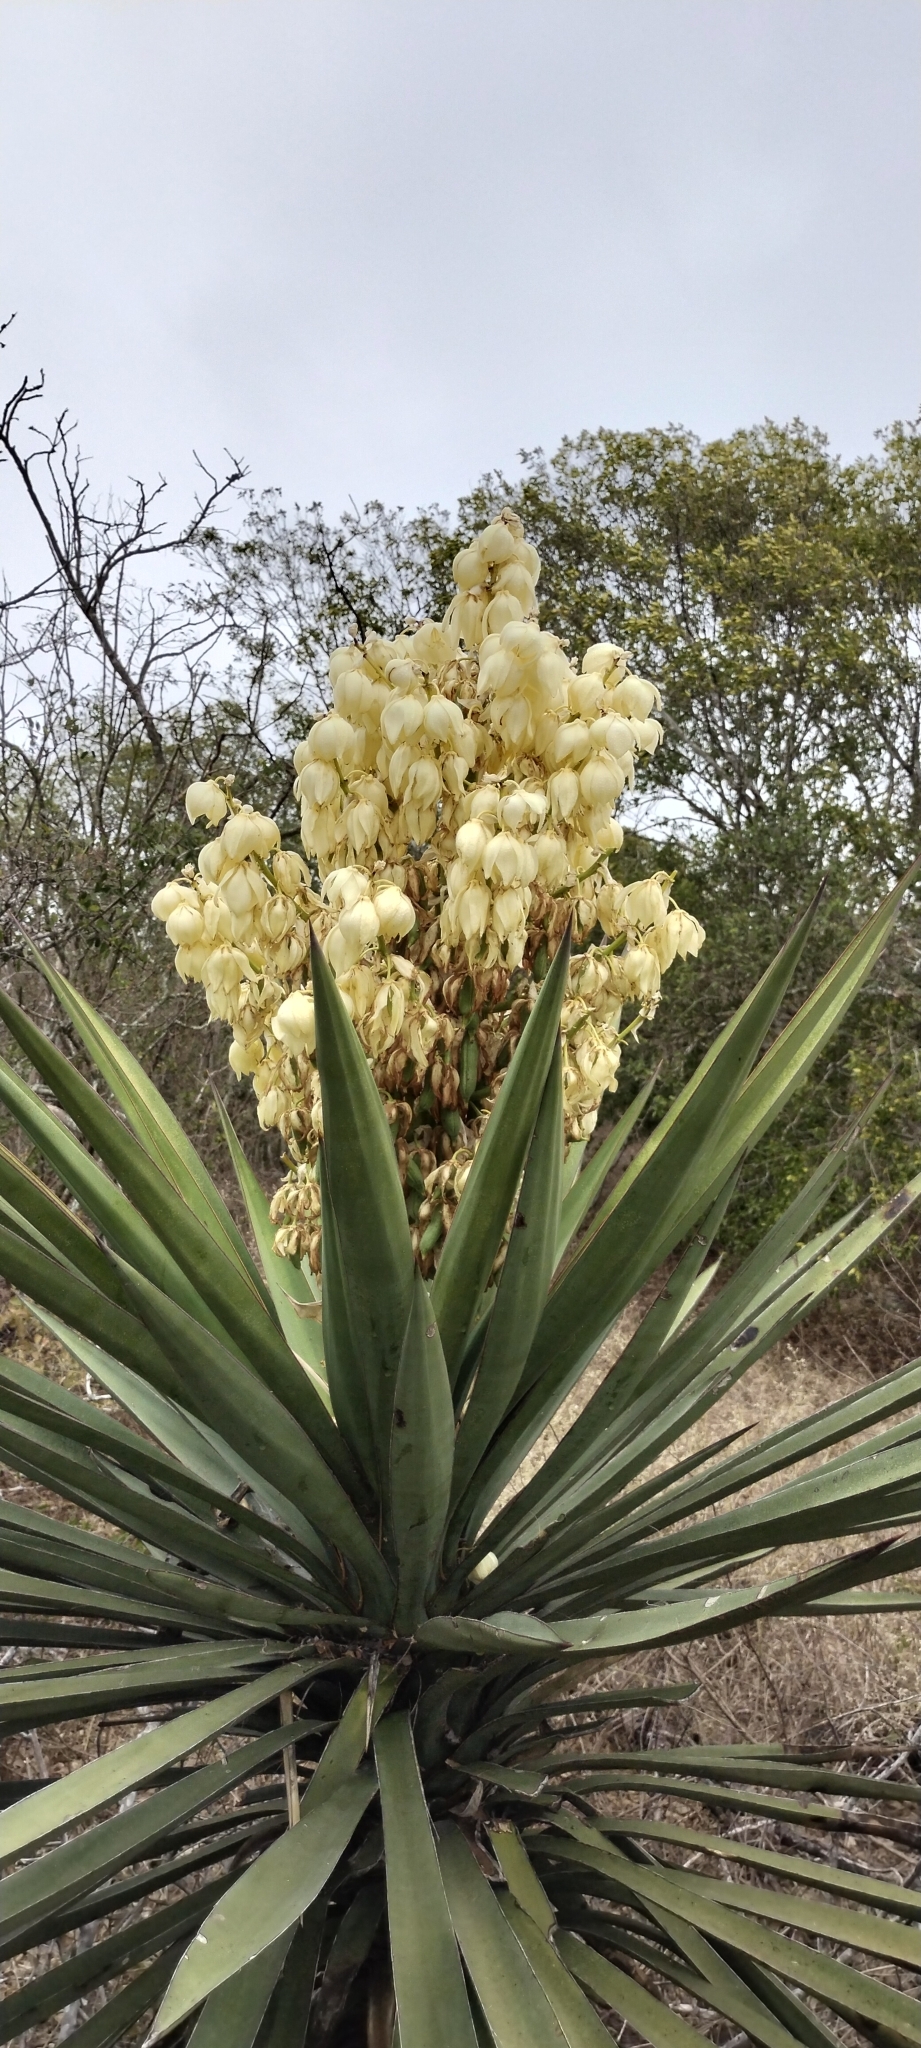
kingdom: Plantae
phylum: Tracheophyta
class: Liliopsida
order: Asparagales
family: Asparagaceae
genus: Yucca
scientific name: Yucca treculiana
